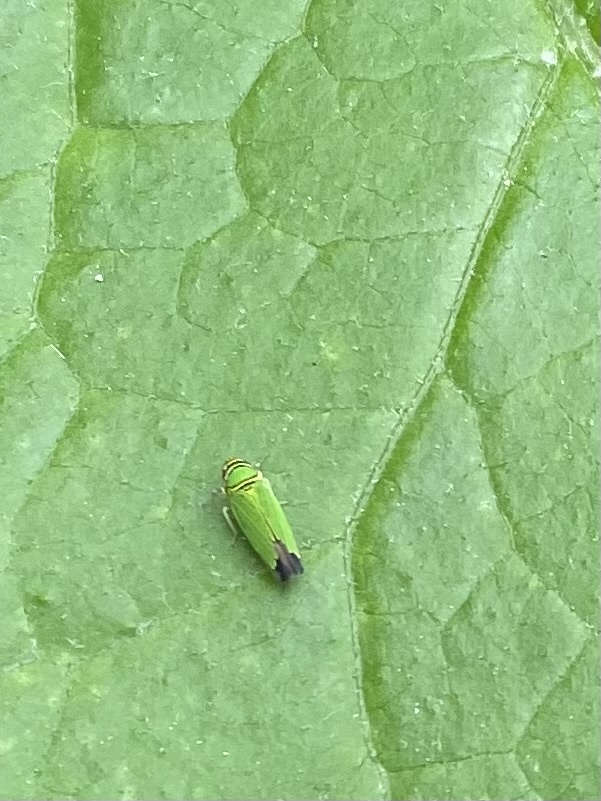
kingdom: Animalia
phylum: Arthropoda
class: Insecta
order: Hemiptera
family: Cicadellidae
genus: Tylozygus
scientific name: Tylozygus geometricus
